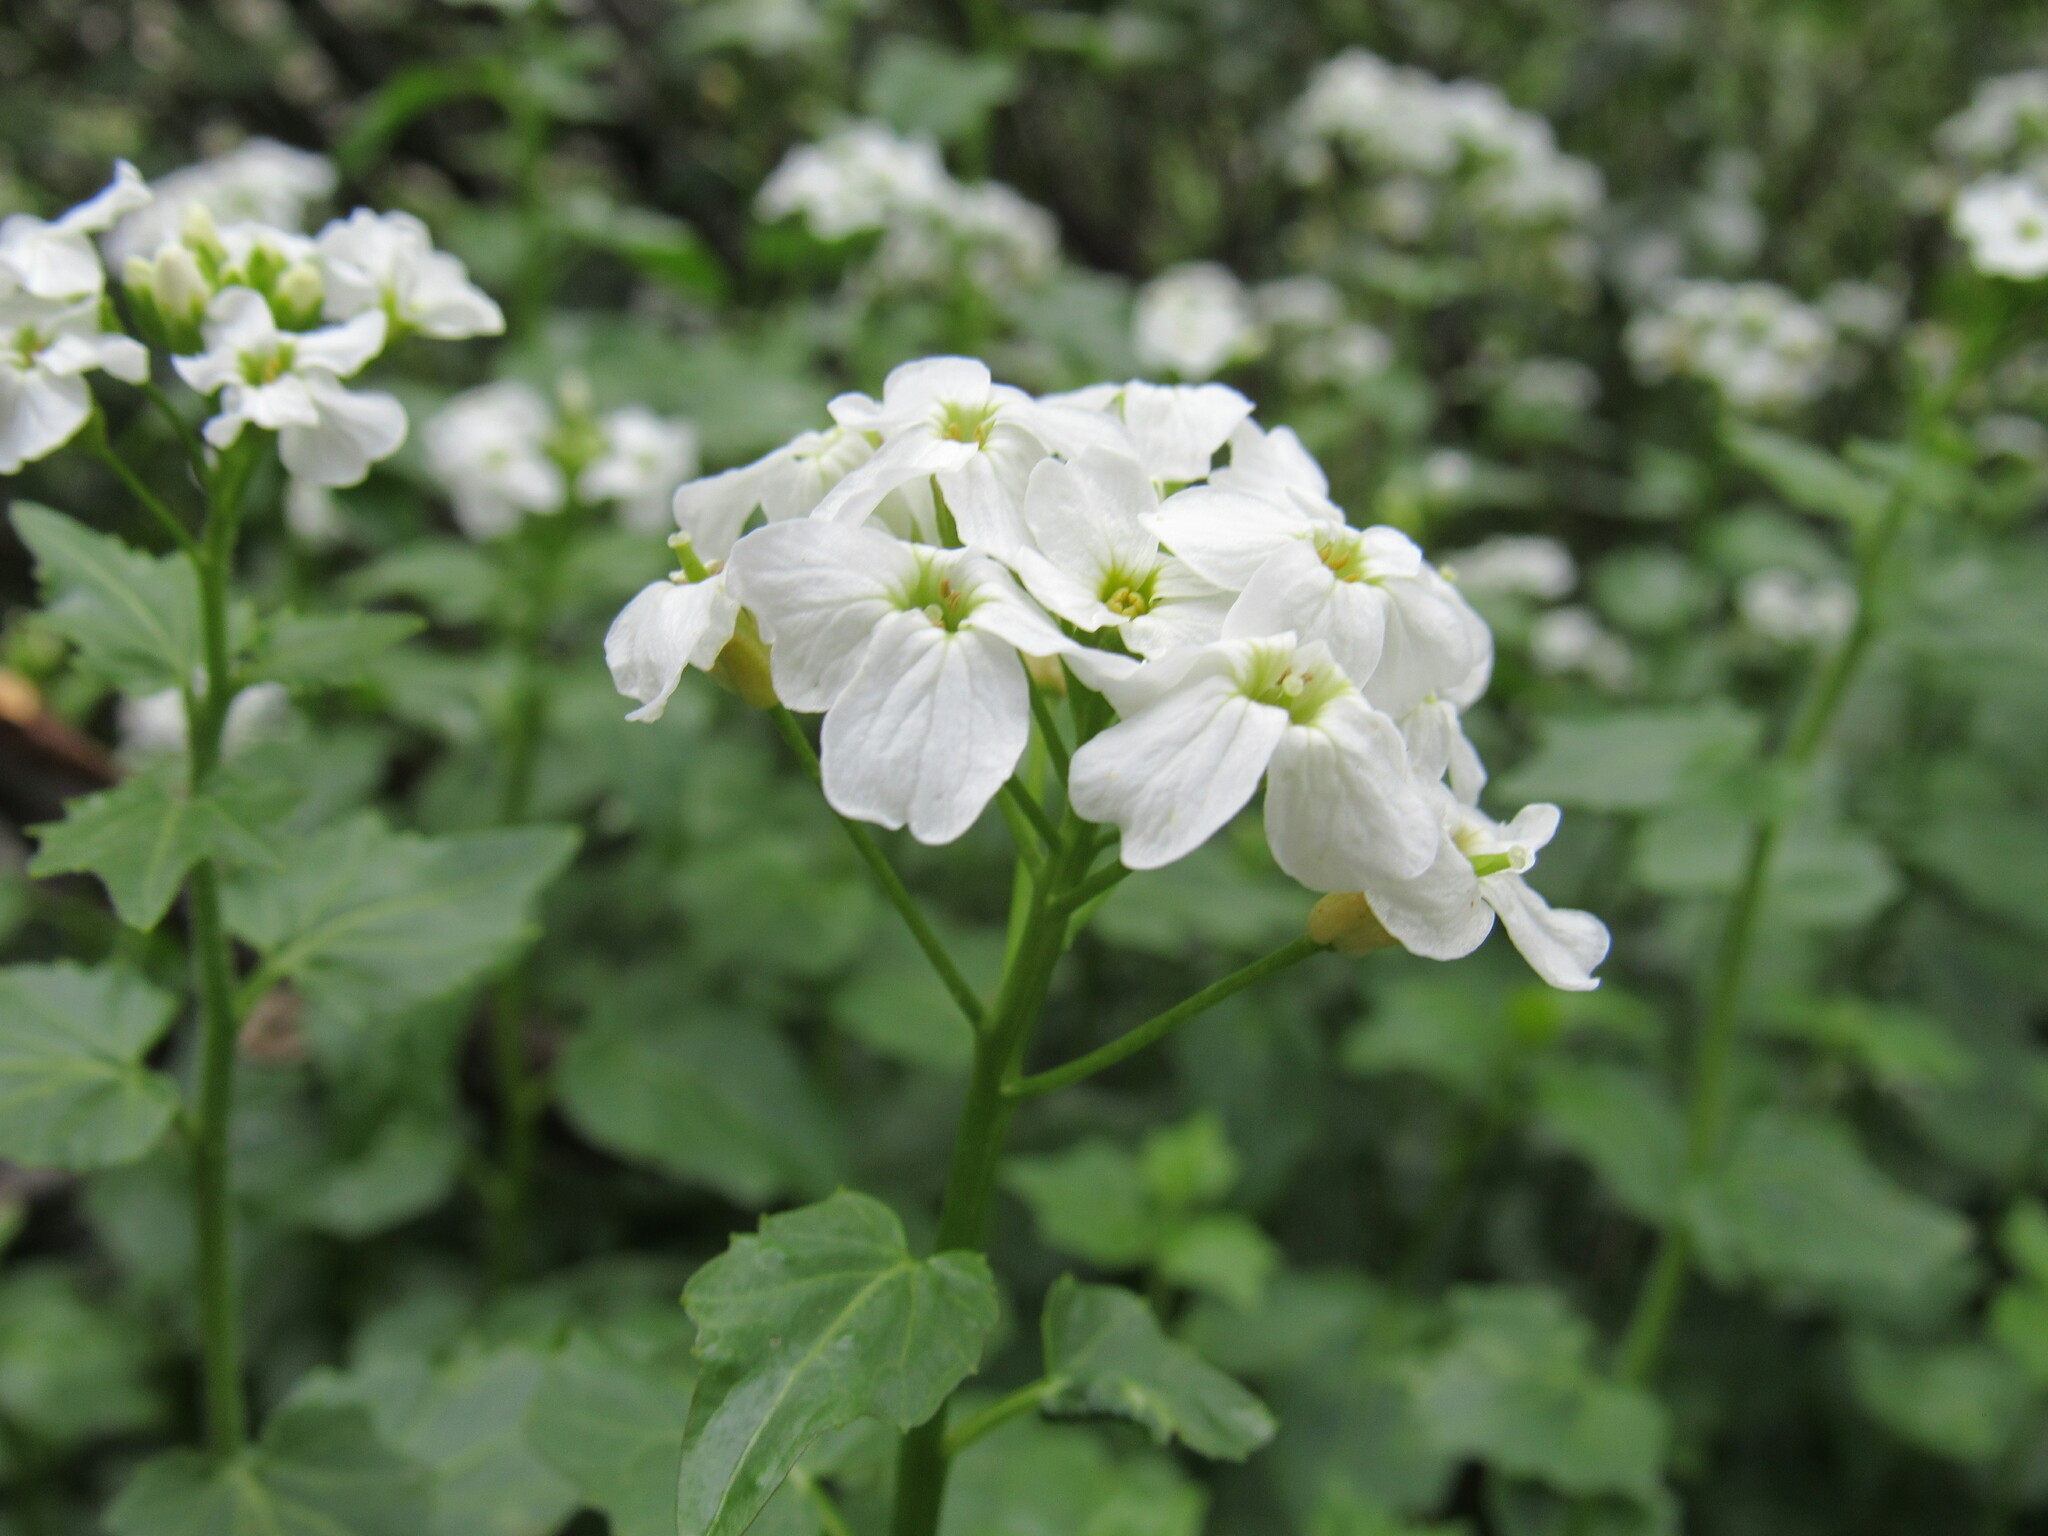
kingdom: Plantae
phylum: Tracheophyta
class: Magnoliopsida
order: Brassicales
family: Brassicaceae
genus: Cardamine
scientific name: Cardamine cordifolia
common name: Heart-leaf bittercress
